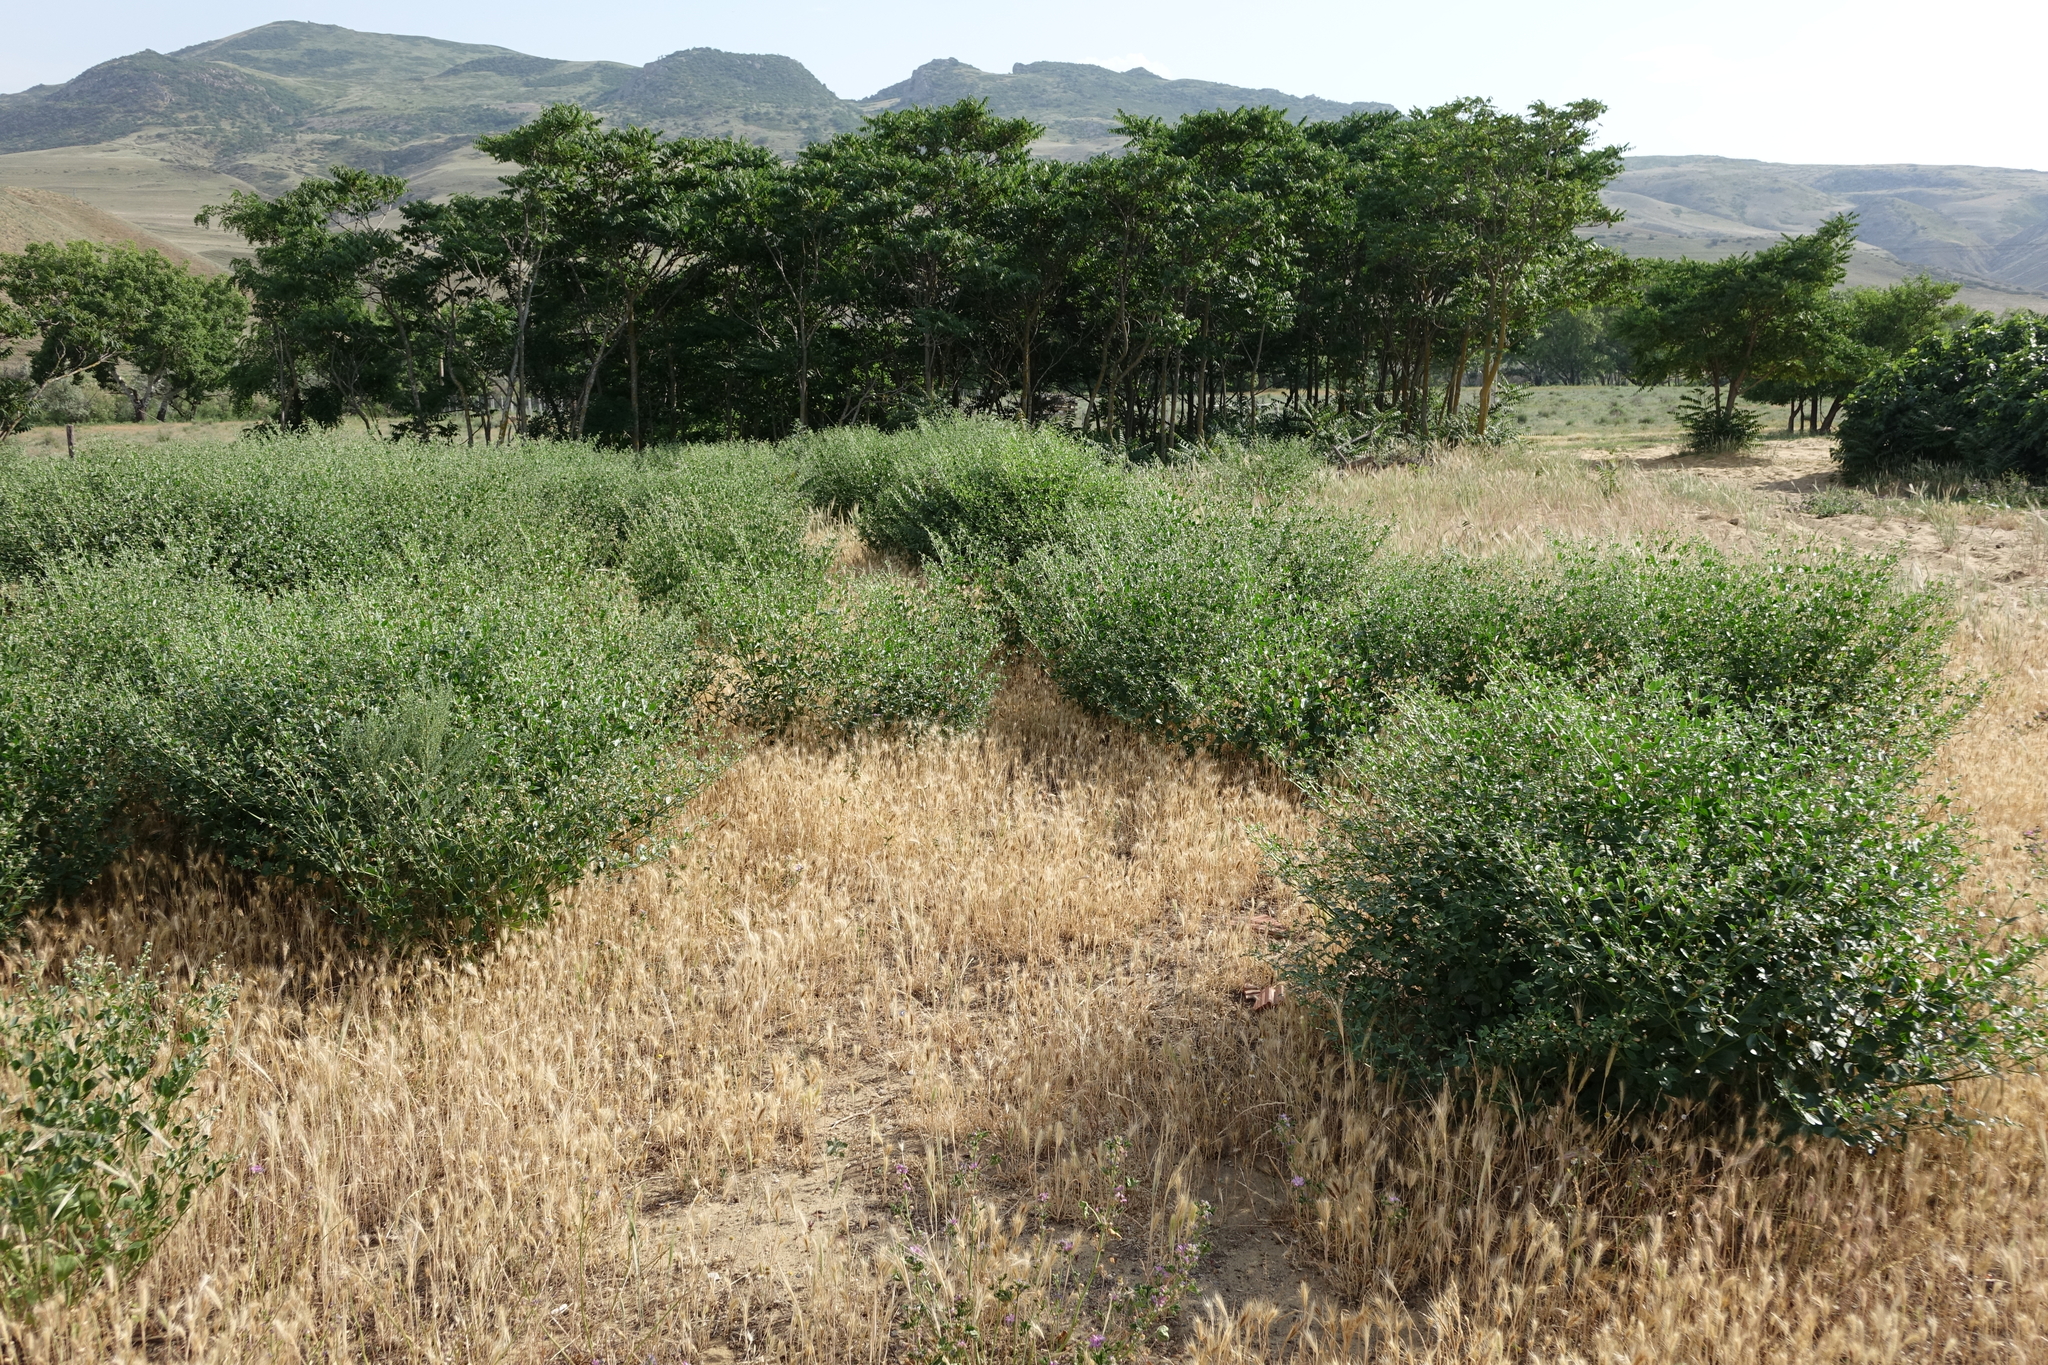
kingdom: Plantae
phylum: Tracheophyta
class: Magnoliopsida
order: Zygophyllales
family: Zygophyllaceae
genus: Zygophyllum
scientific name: Zygophyllum fabago
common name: Syrian beancaper
